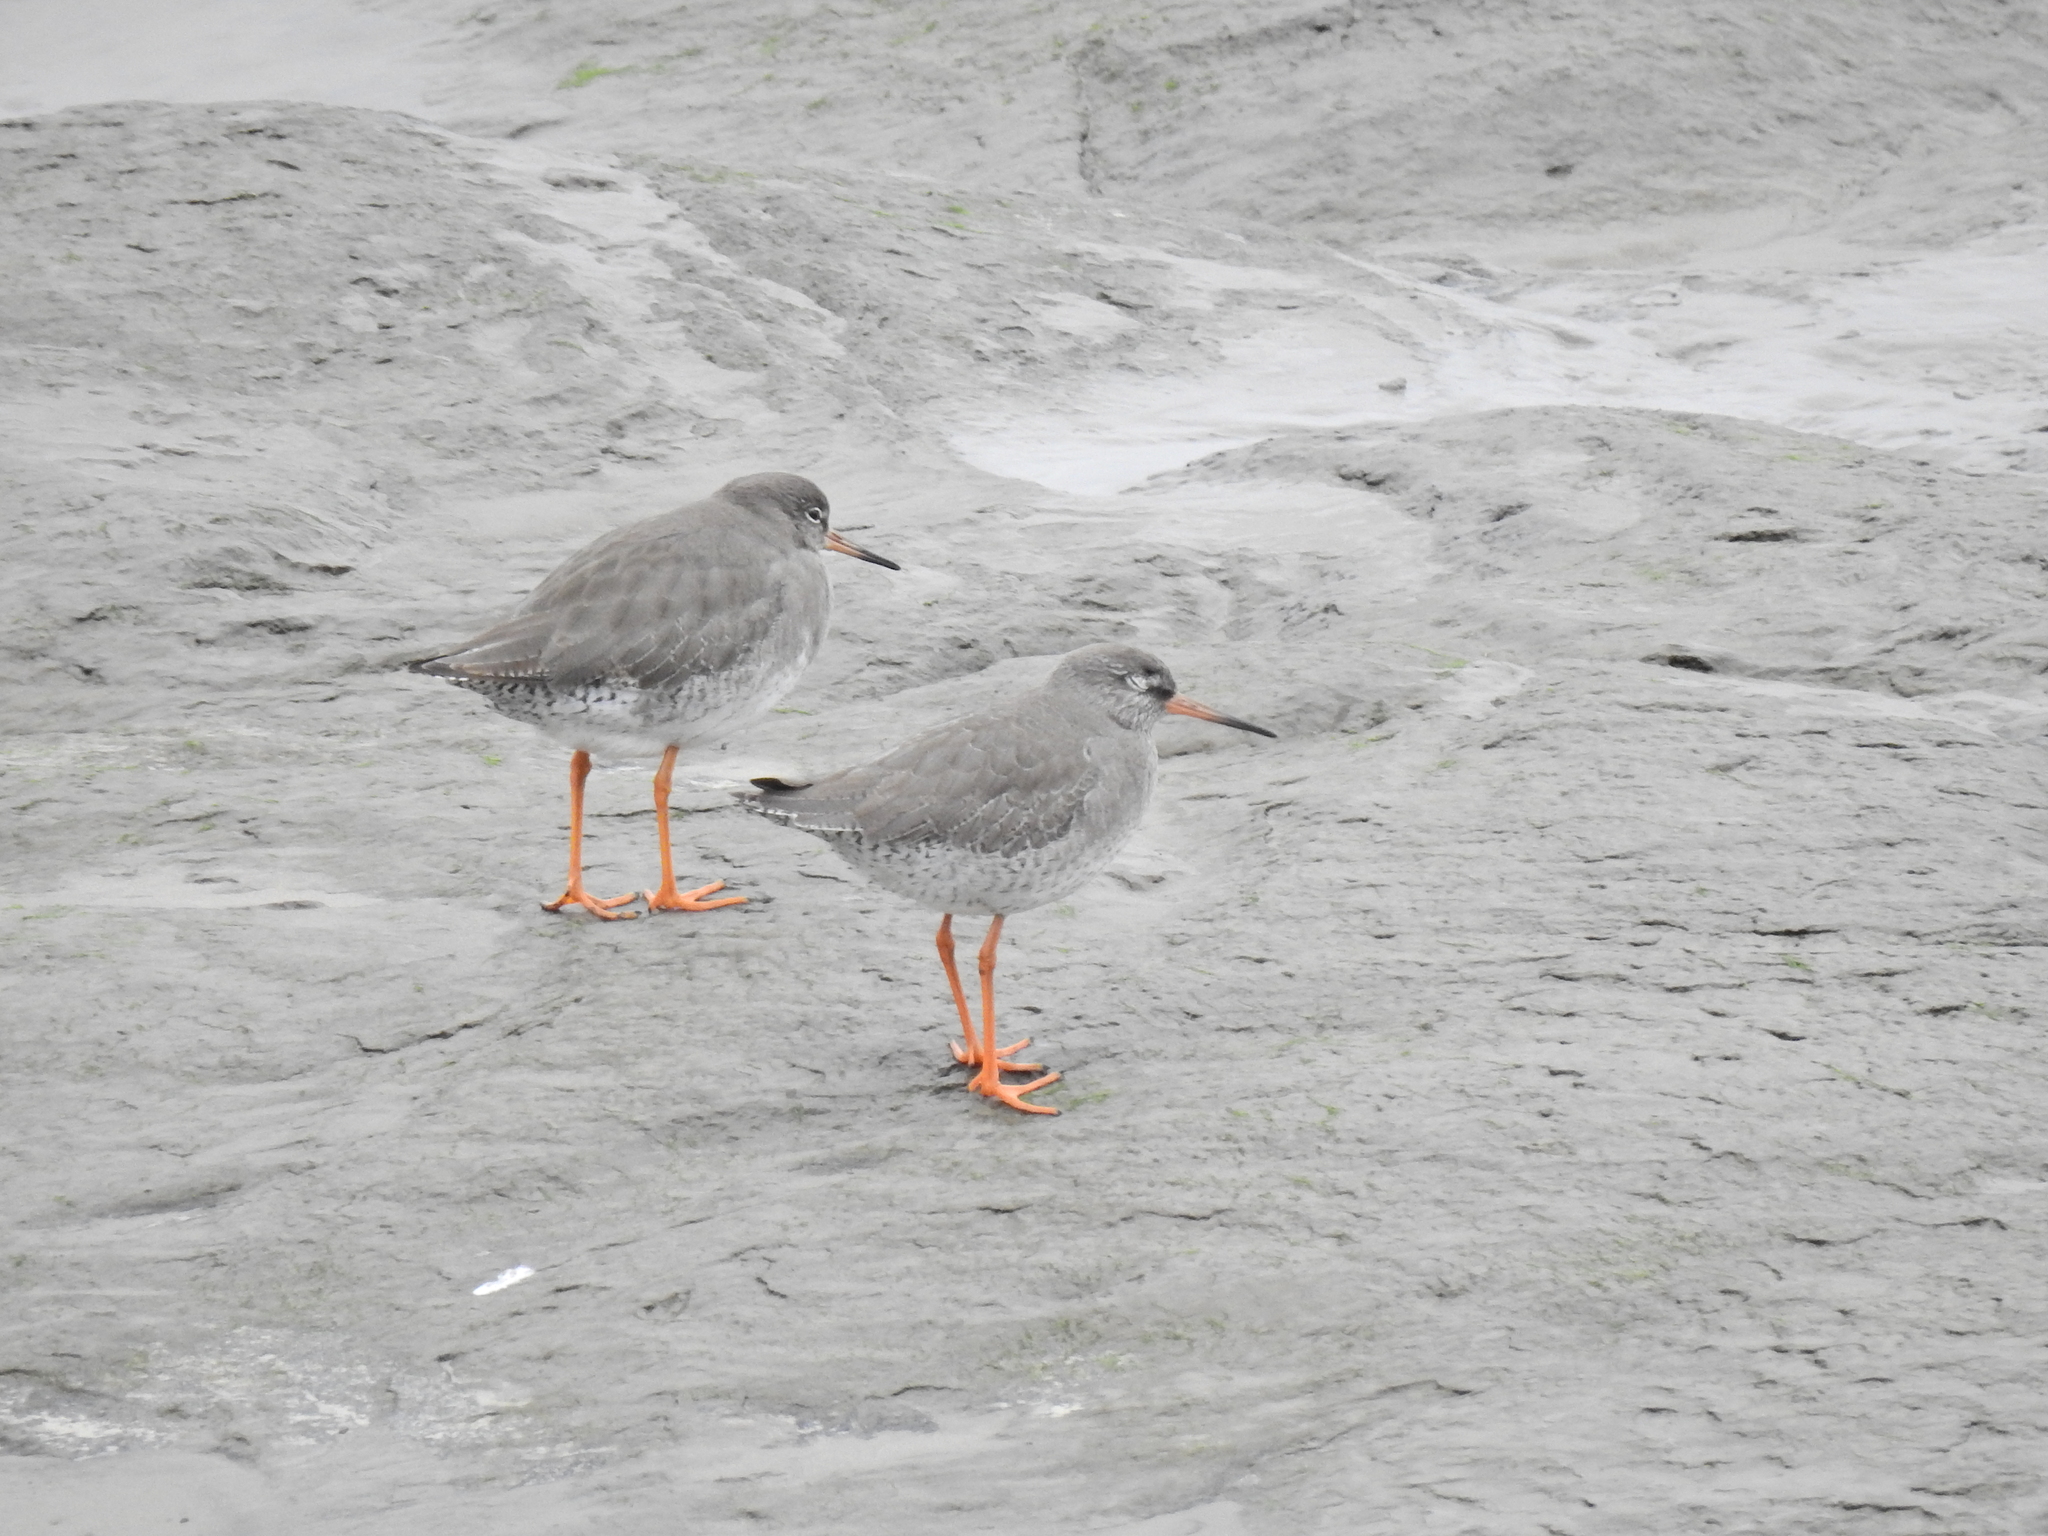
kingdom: Animalia
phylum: Chordata
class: Aves
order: Charadriiformes
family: Scolopacidae
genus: Tringa
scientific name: Tringa totanus
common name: Common redshank
